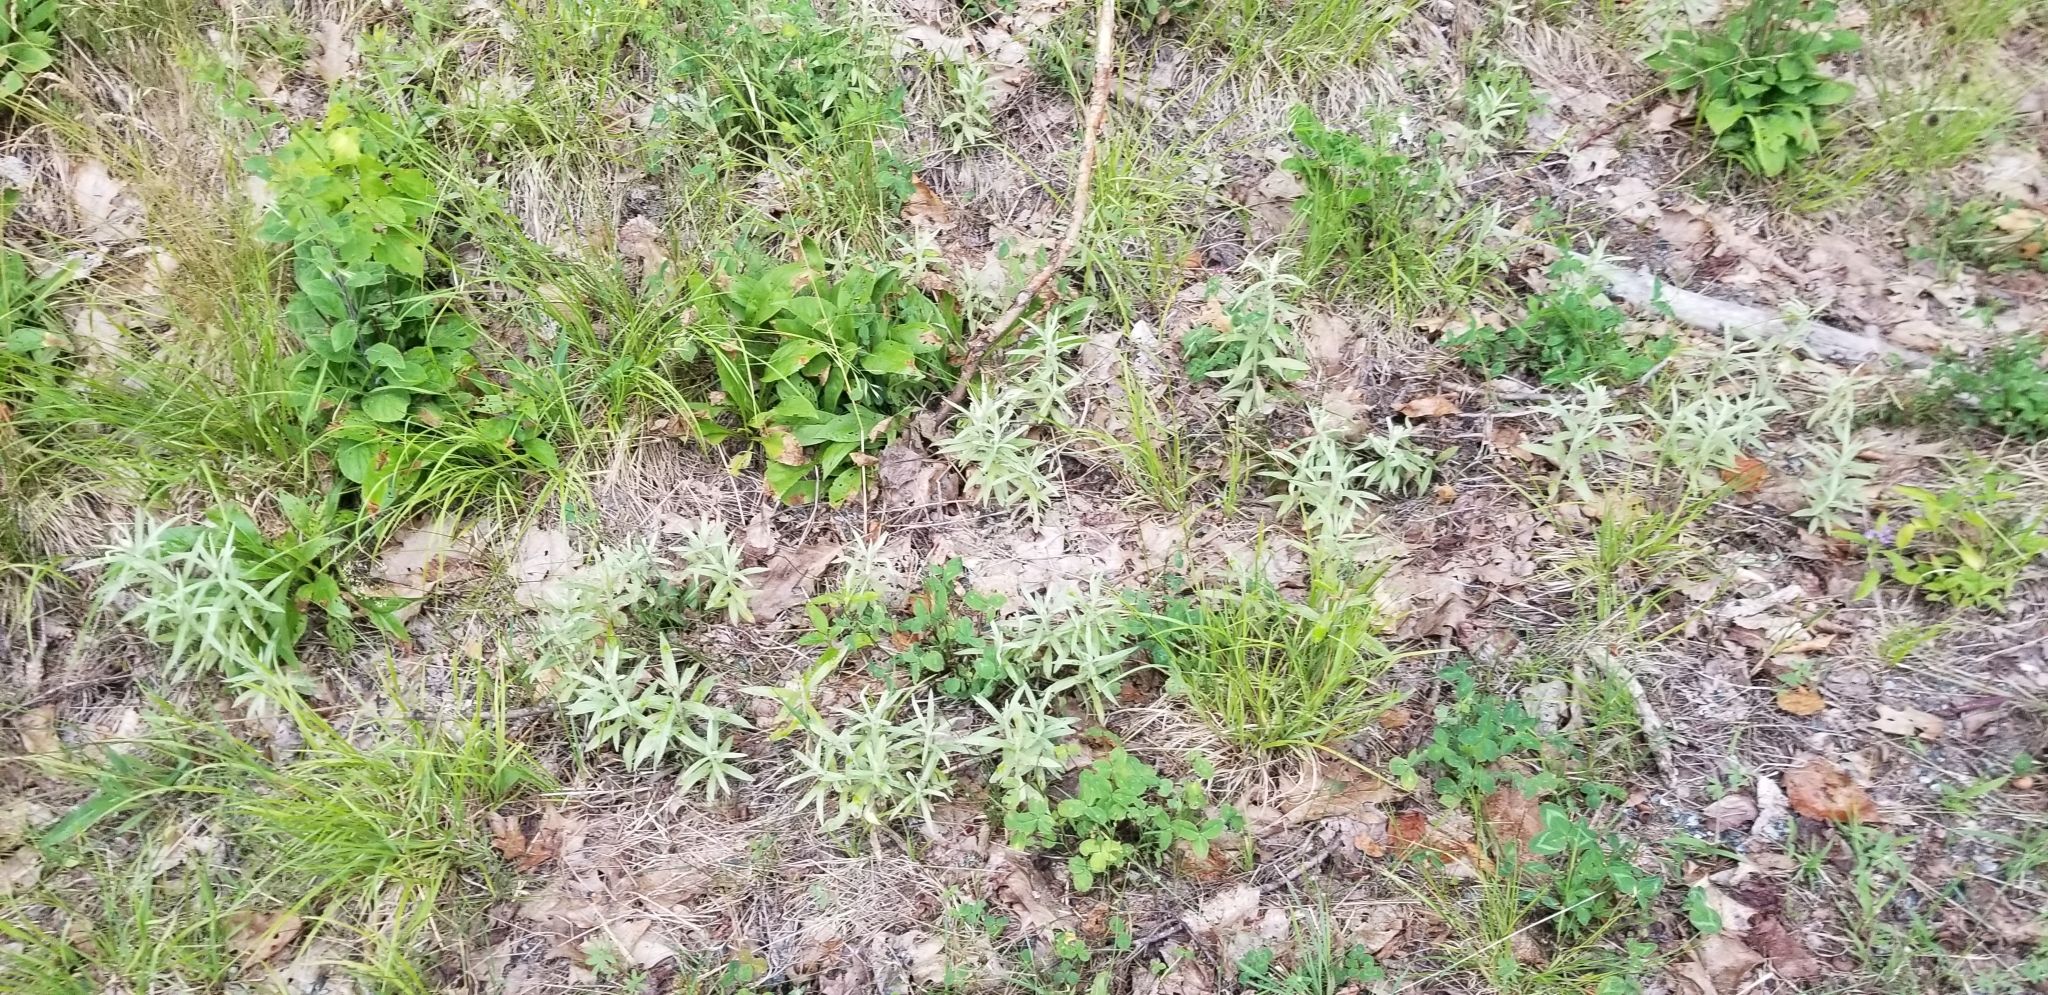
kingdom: Plantae
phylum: Tracheophyta
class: Magnoliopsida
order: Asterales
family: Asteraceae
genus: Anaphalis
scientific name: Anaphalis margaritacea
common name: Pearly everlasting
